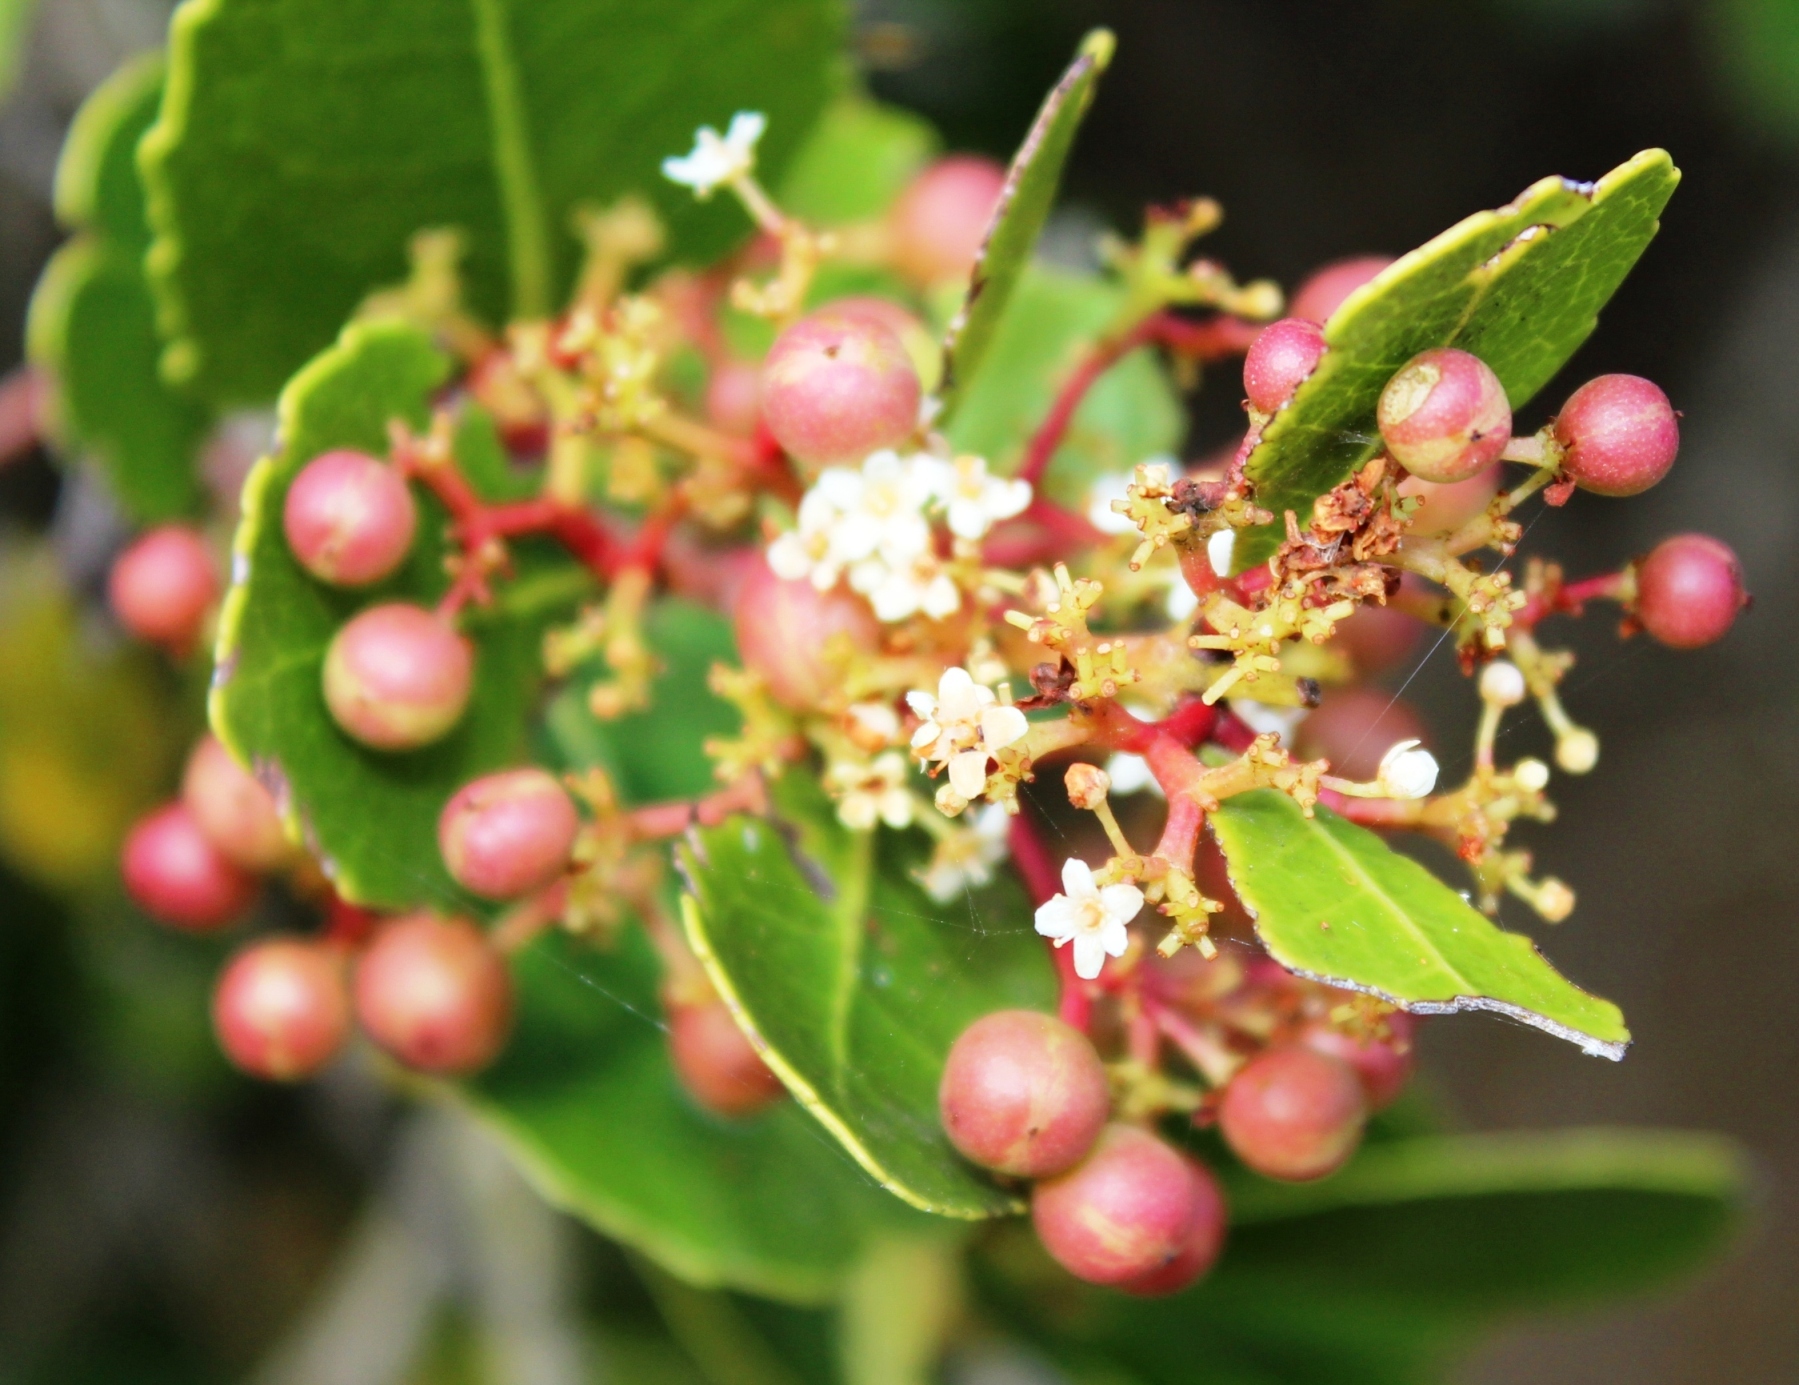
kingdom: Plantae
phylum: Tracheophyta
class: Magnoliopsida
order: Celastrales
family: Celastraceae
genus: Cassine
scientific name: Cassine peragua
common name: Cape saffron
